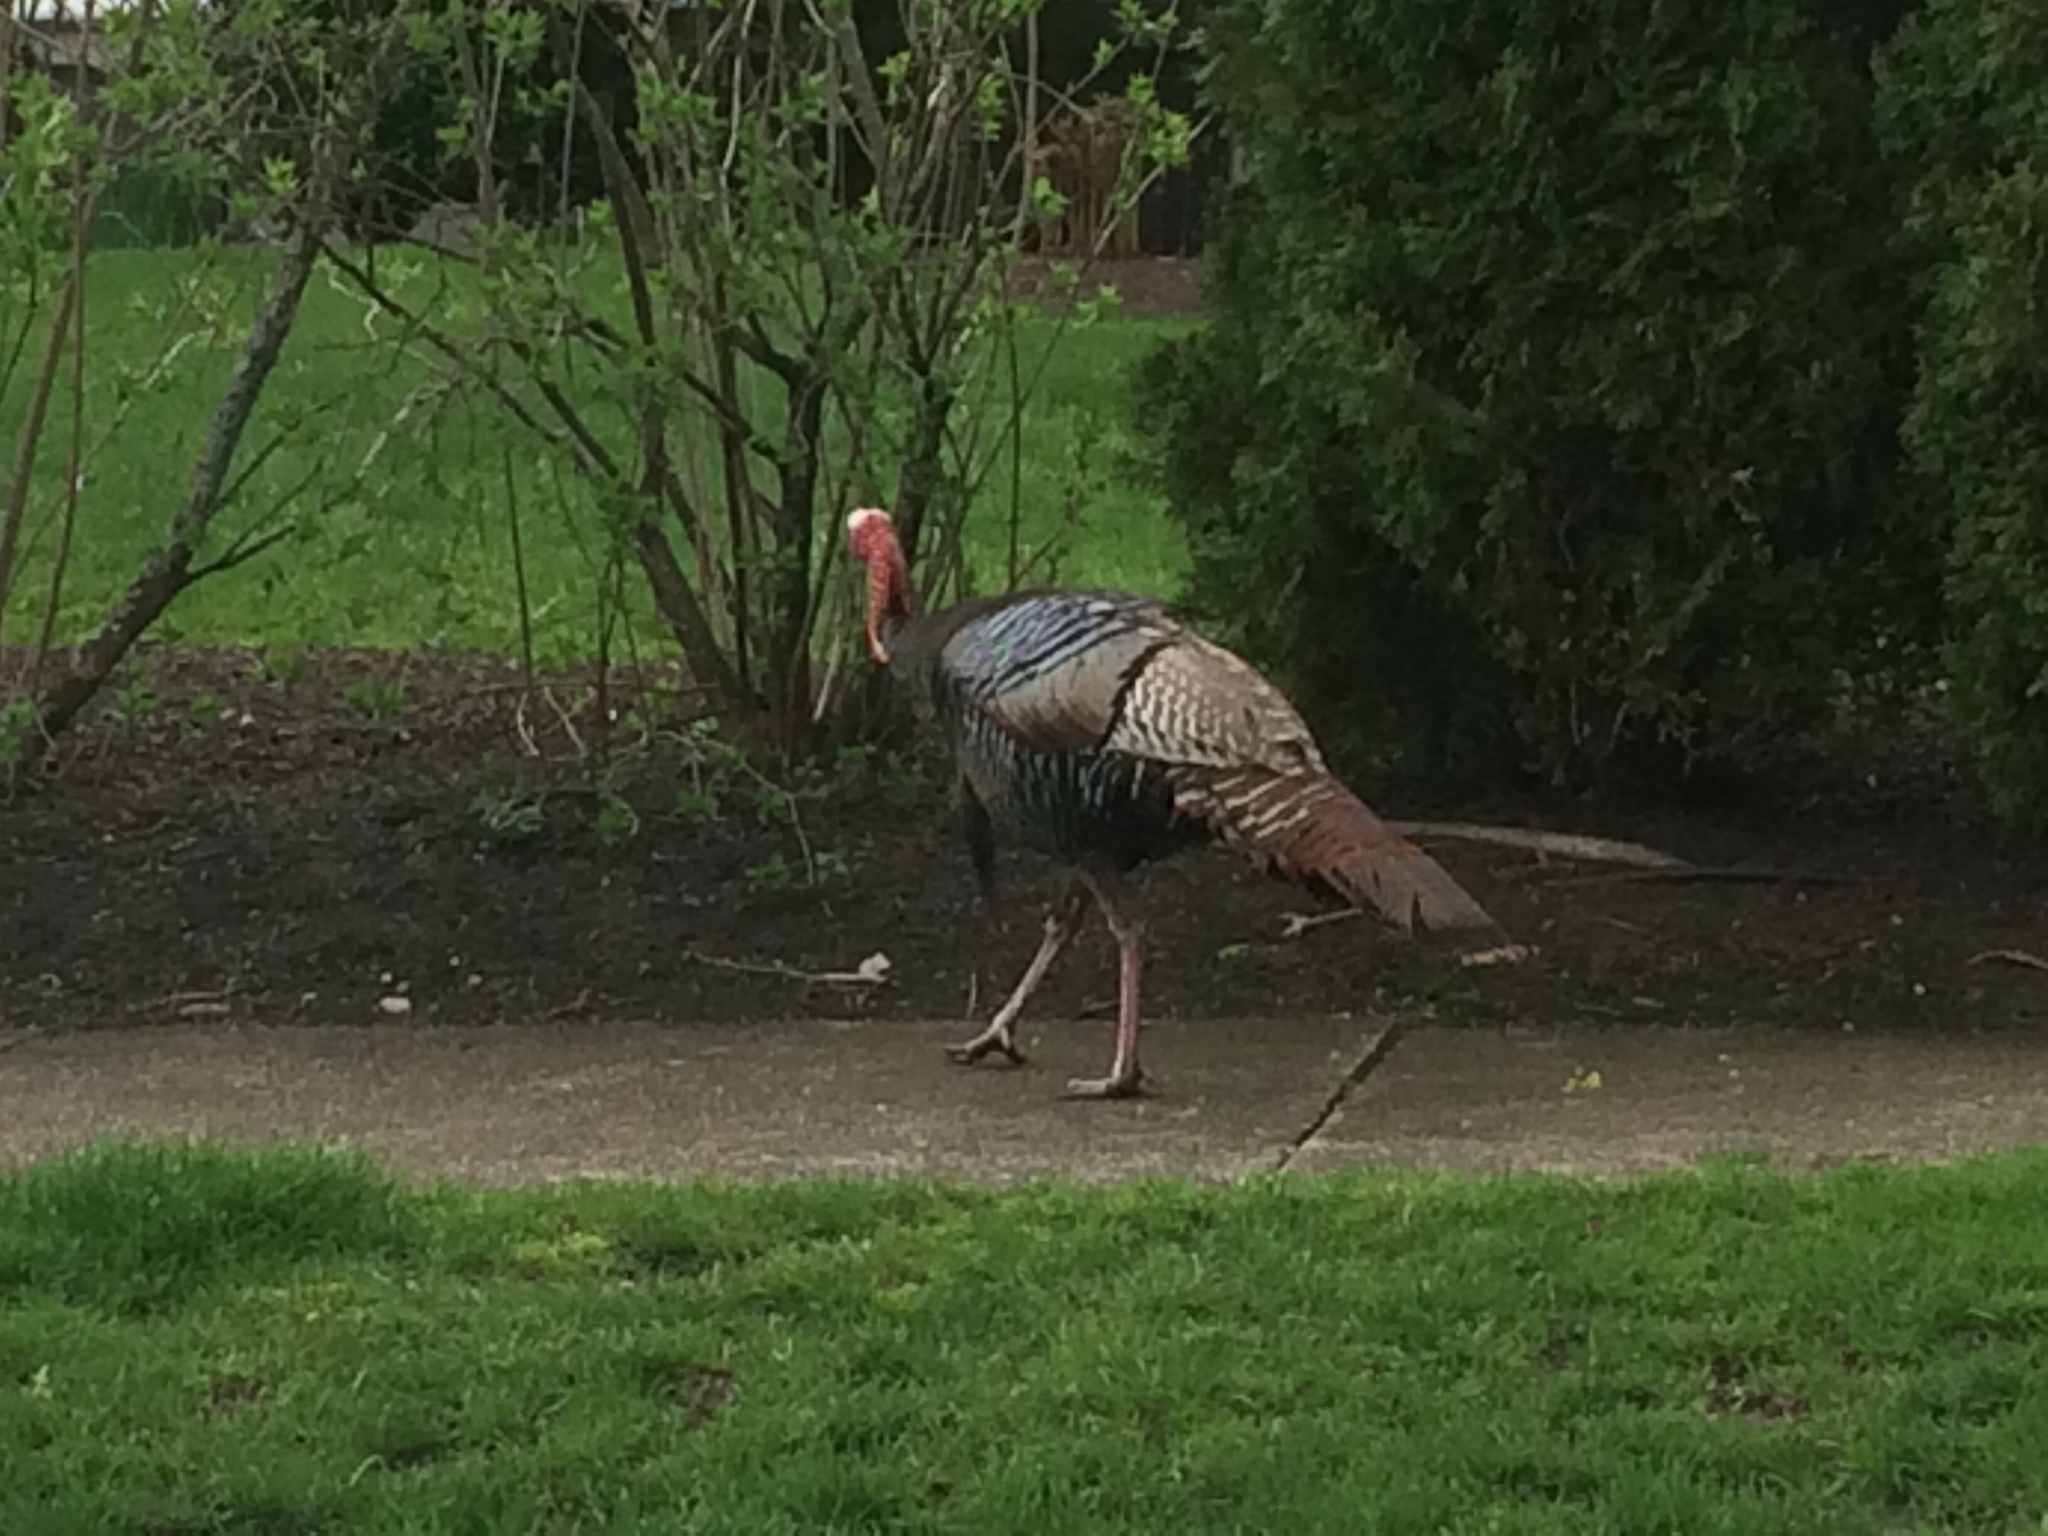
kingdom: Animalia
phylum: Chordata
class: Aves
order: Galliformes
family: Phasianidae
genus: Meleagris
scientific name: Meleagris gallopavo
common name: Wild turkey
